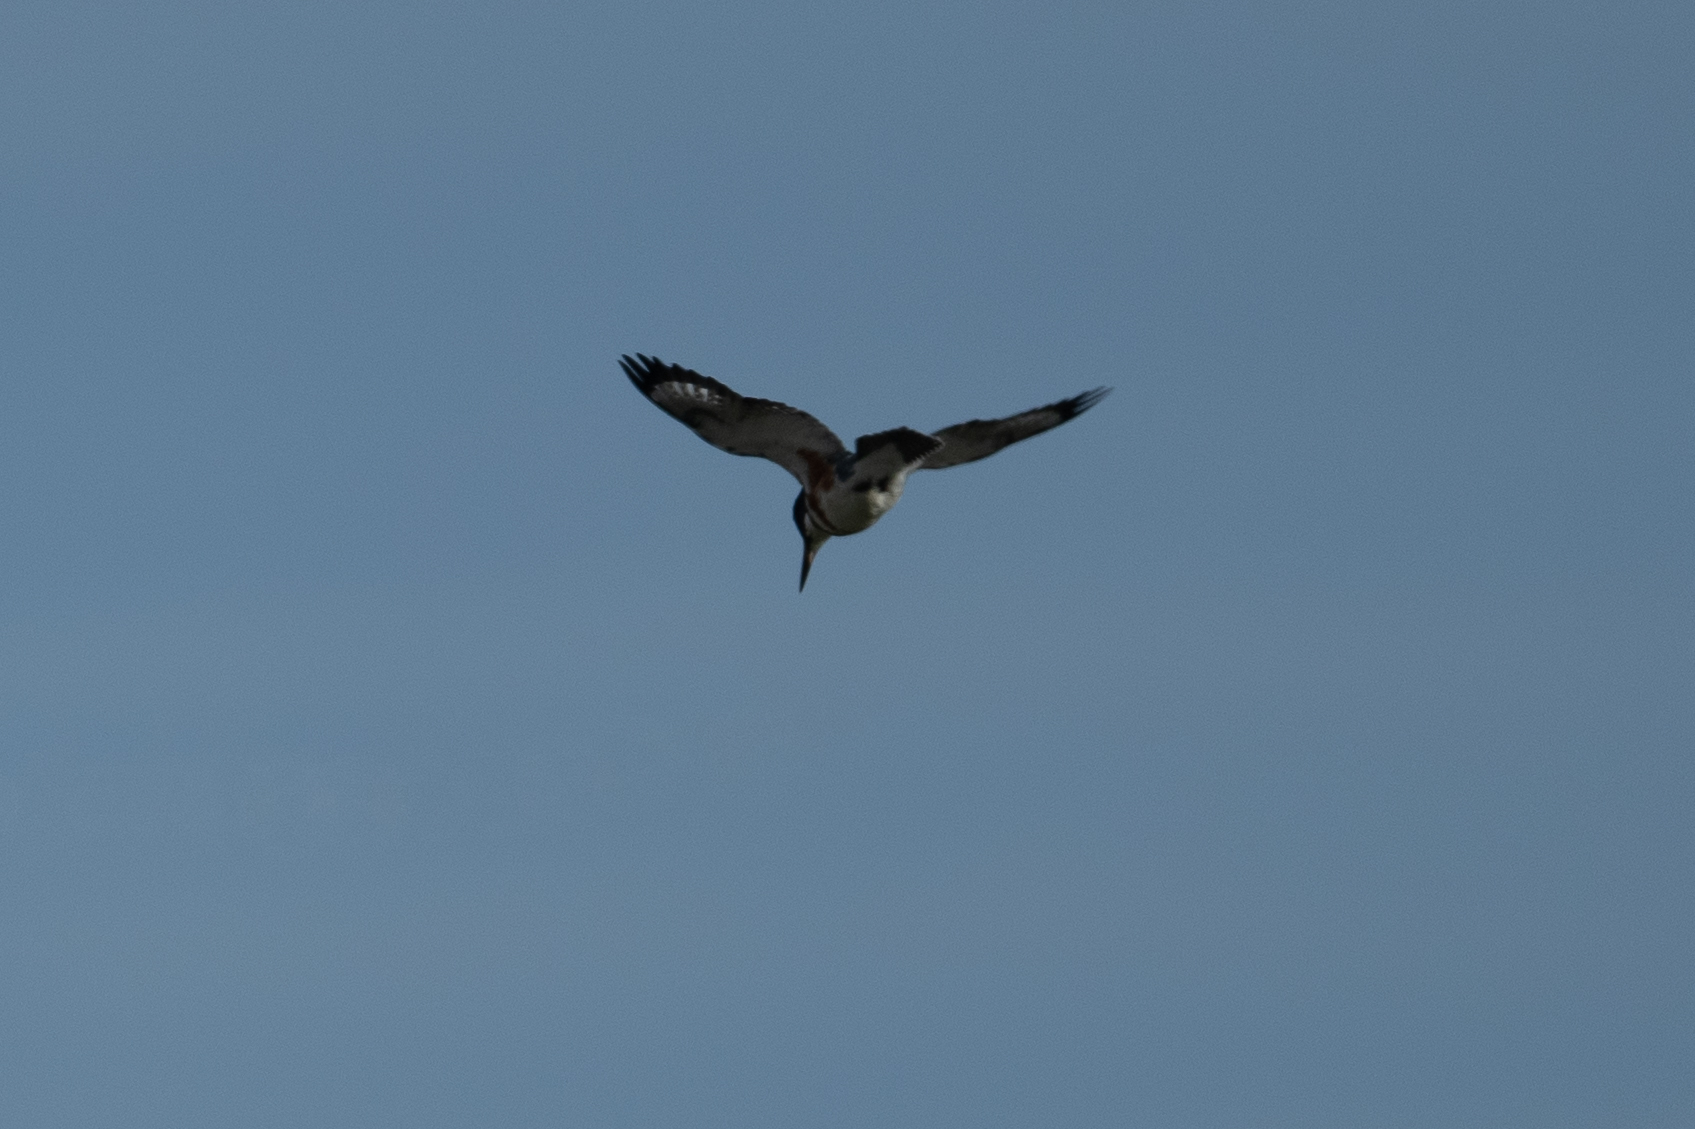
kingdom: Animalia
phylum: Chordata
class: Aves
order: Coraciiformes
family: Alcedinidae
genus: Megaceryle
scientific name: Megaceryle alcyon
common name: Belted kingfisher
